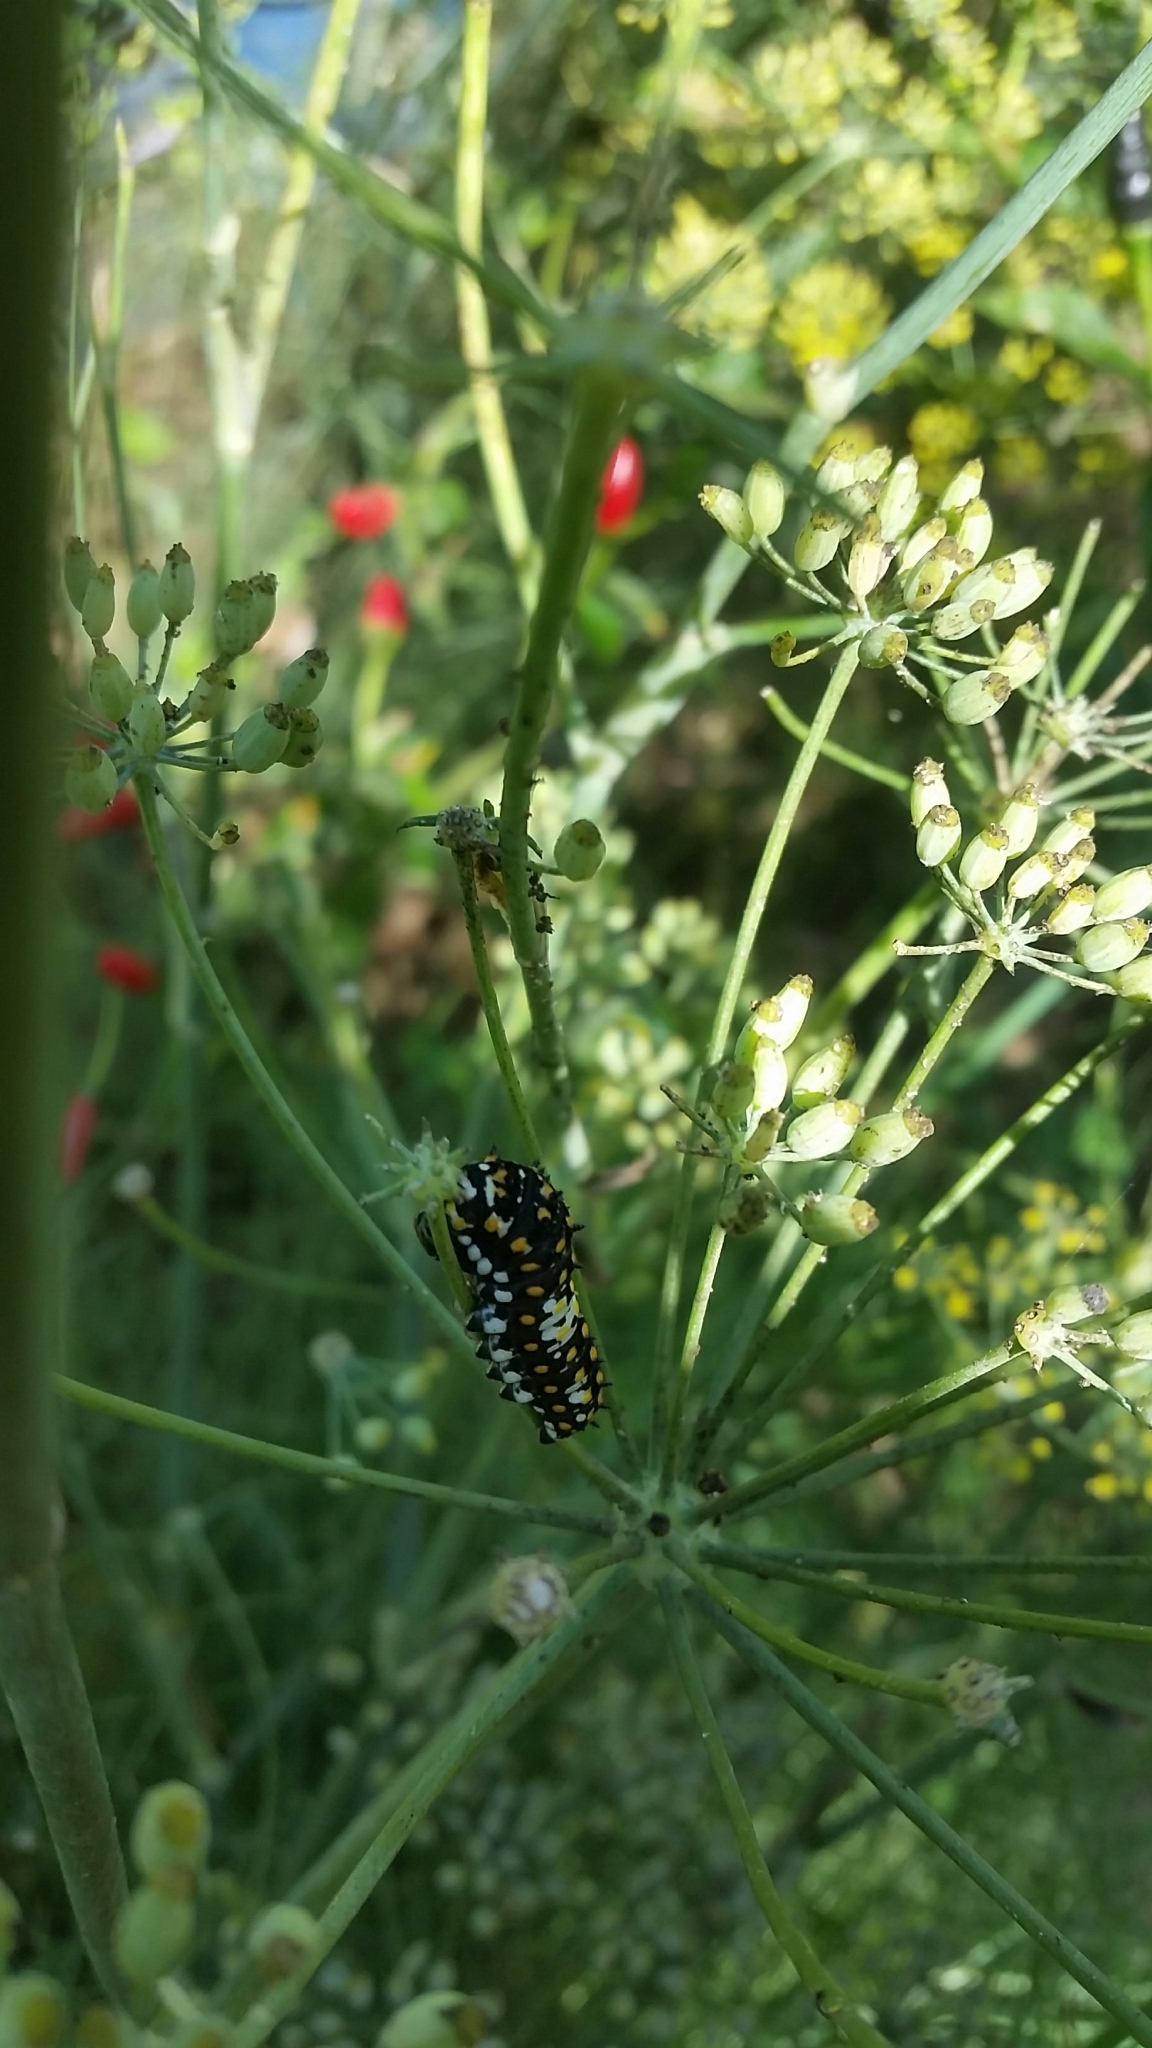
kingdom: Animalia
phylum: Arthropoda
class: Insecta
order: Lepidoptera
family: Papilionidae
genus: Papilio
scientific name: Papilio zelicaon
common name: Anise swallowtail
